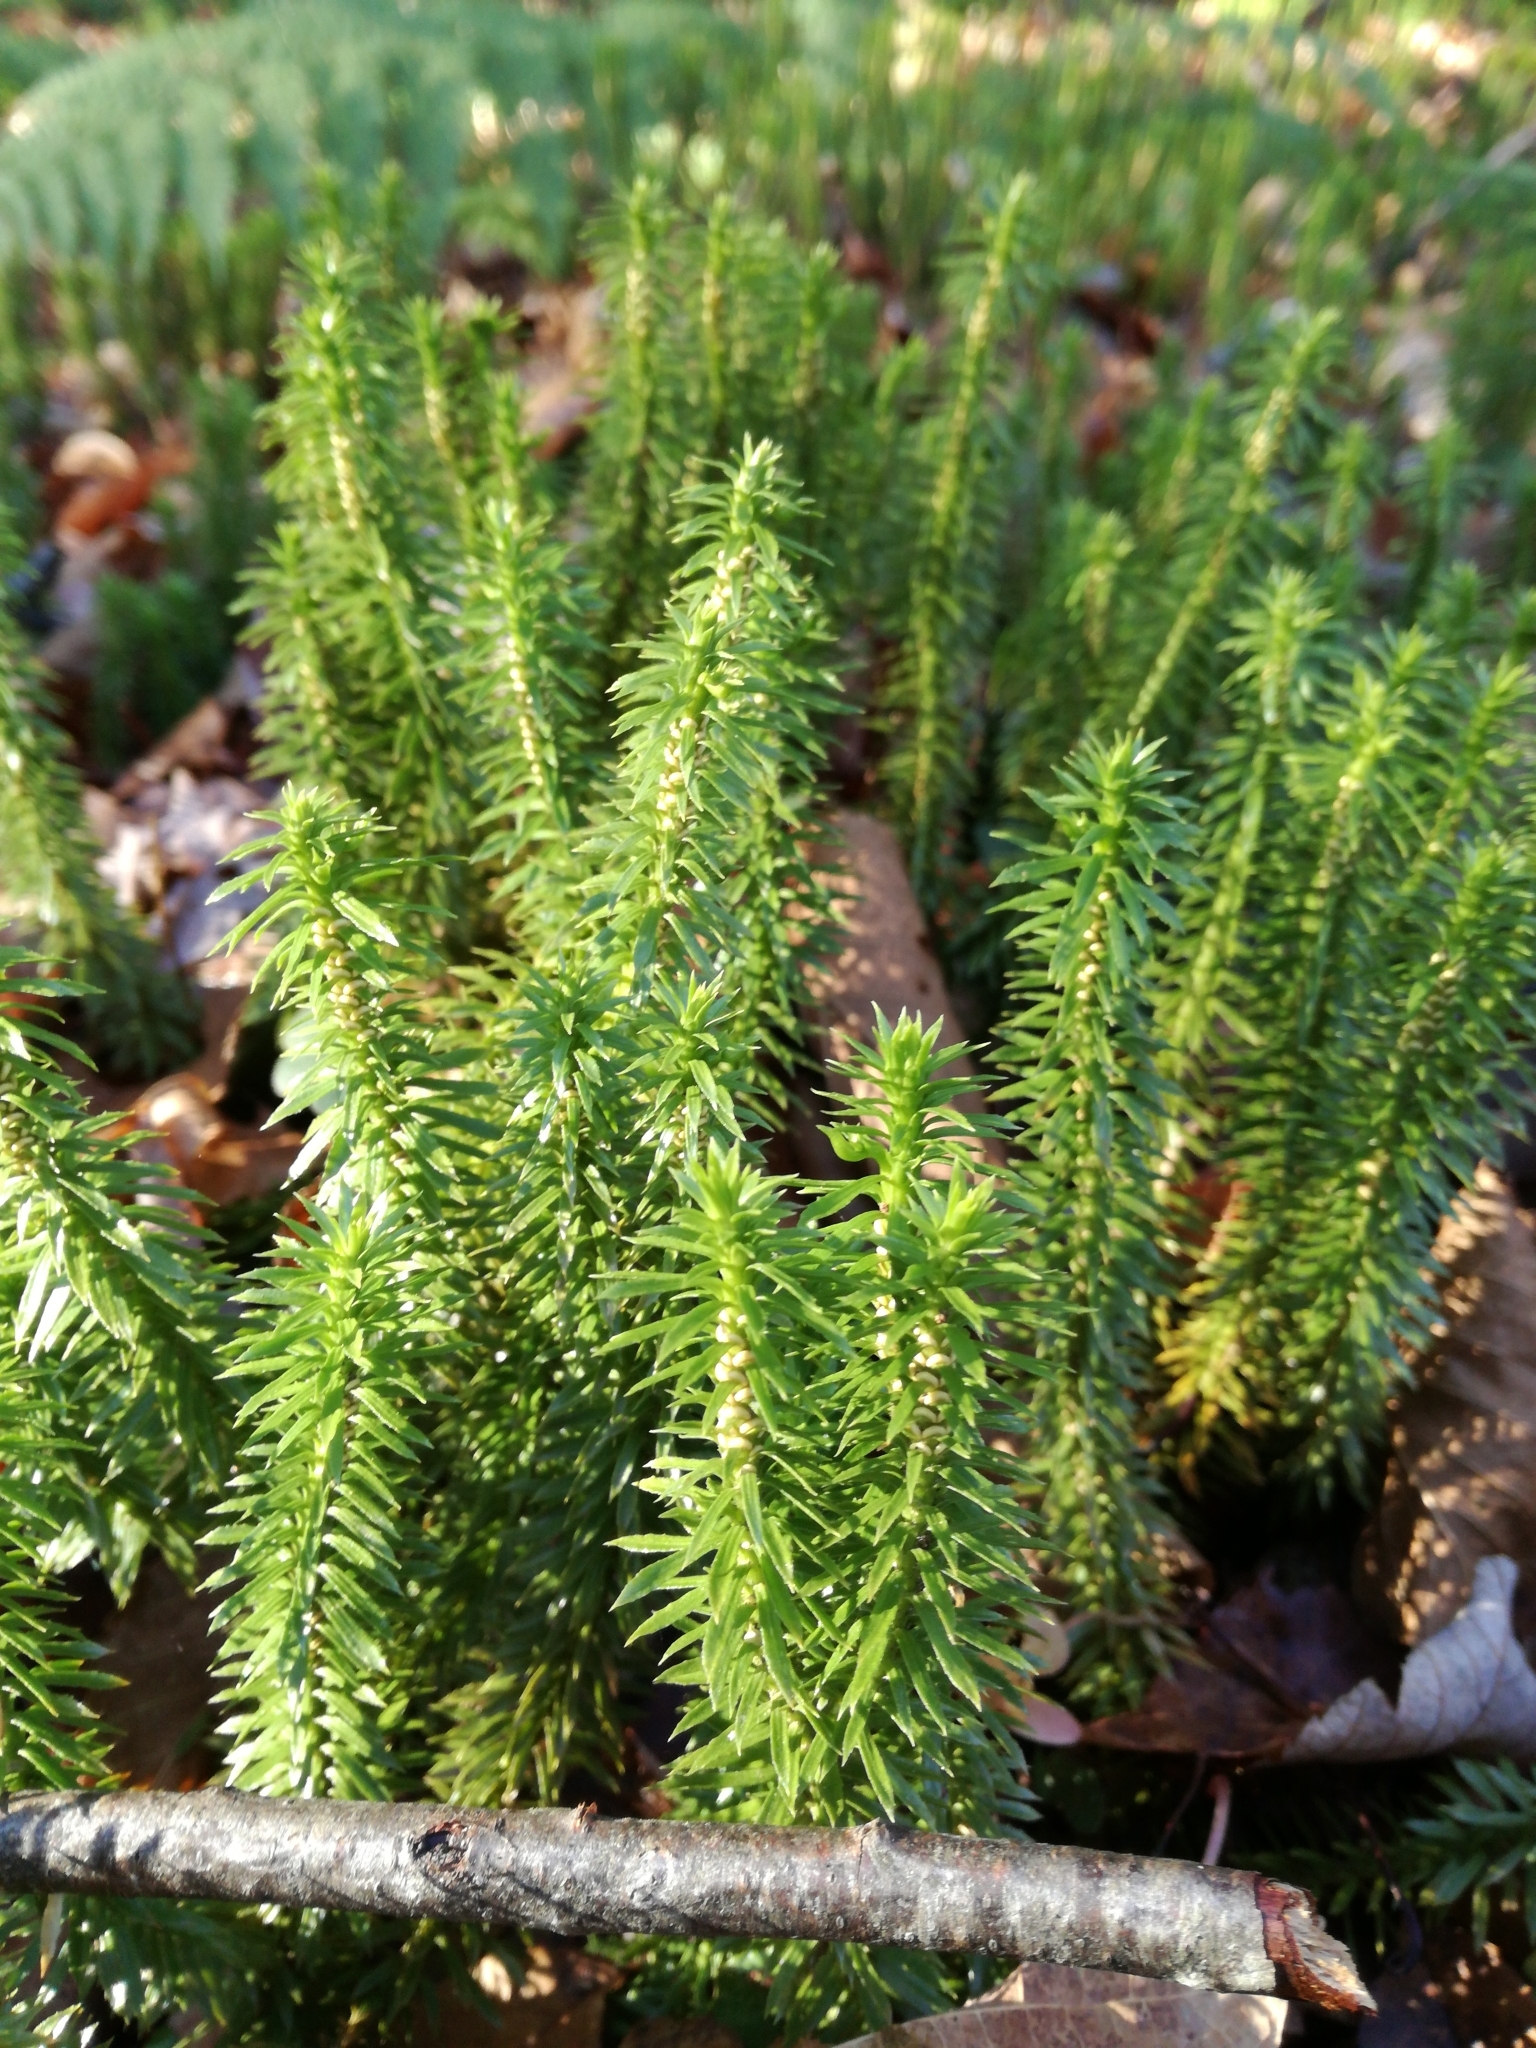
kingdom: Plantae
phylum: Tracheophyta
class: Lycopodiopsida
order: Lycopodiales
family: Lycopodiaceae
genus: Huperzia
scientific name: Huperzia lucidula
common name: Shining clubmoss
